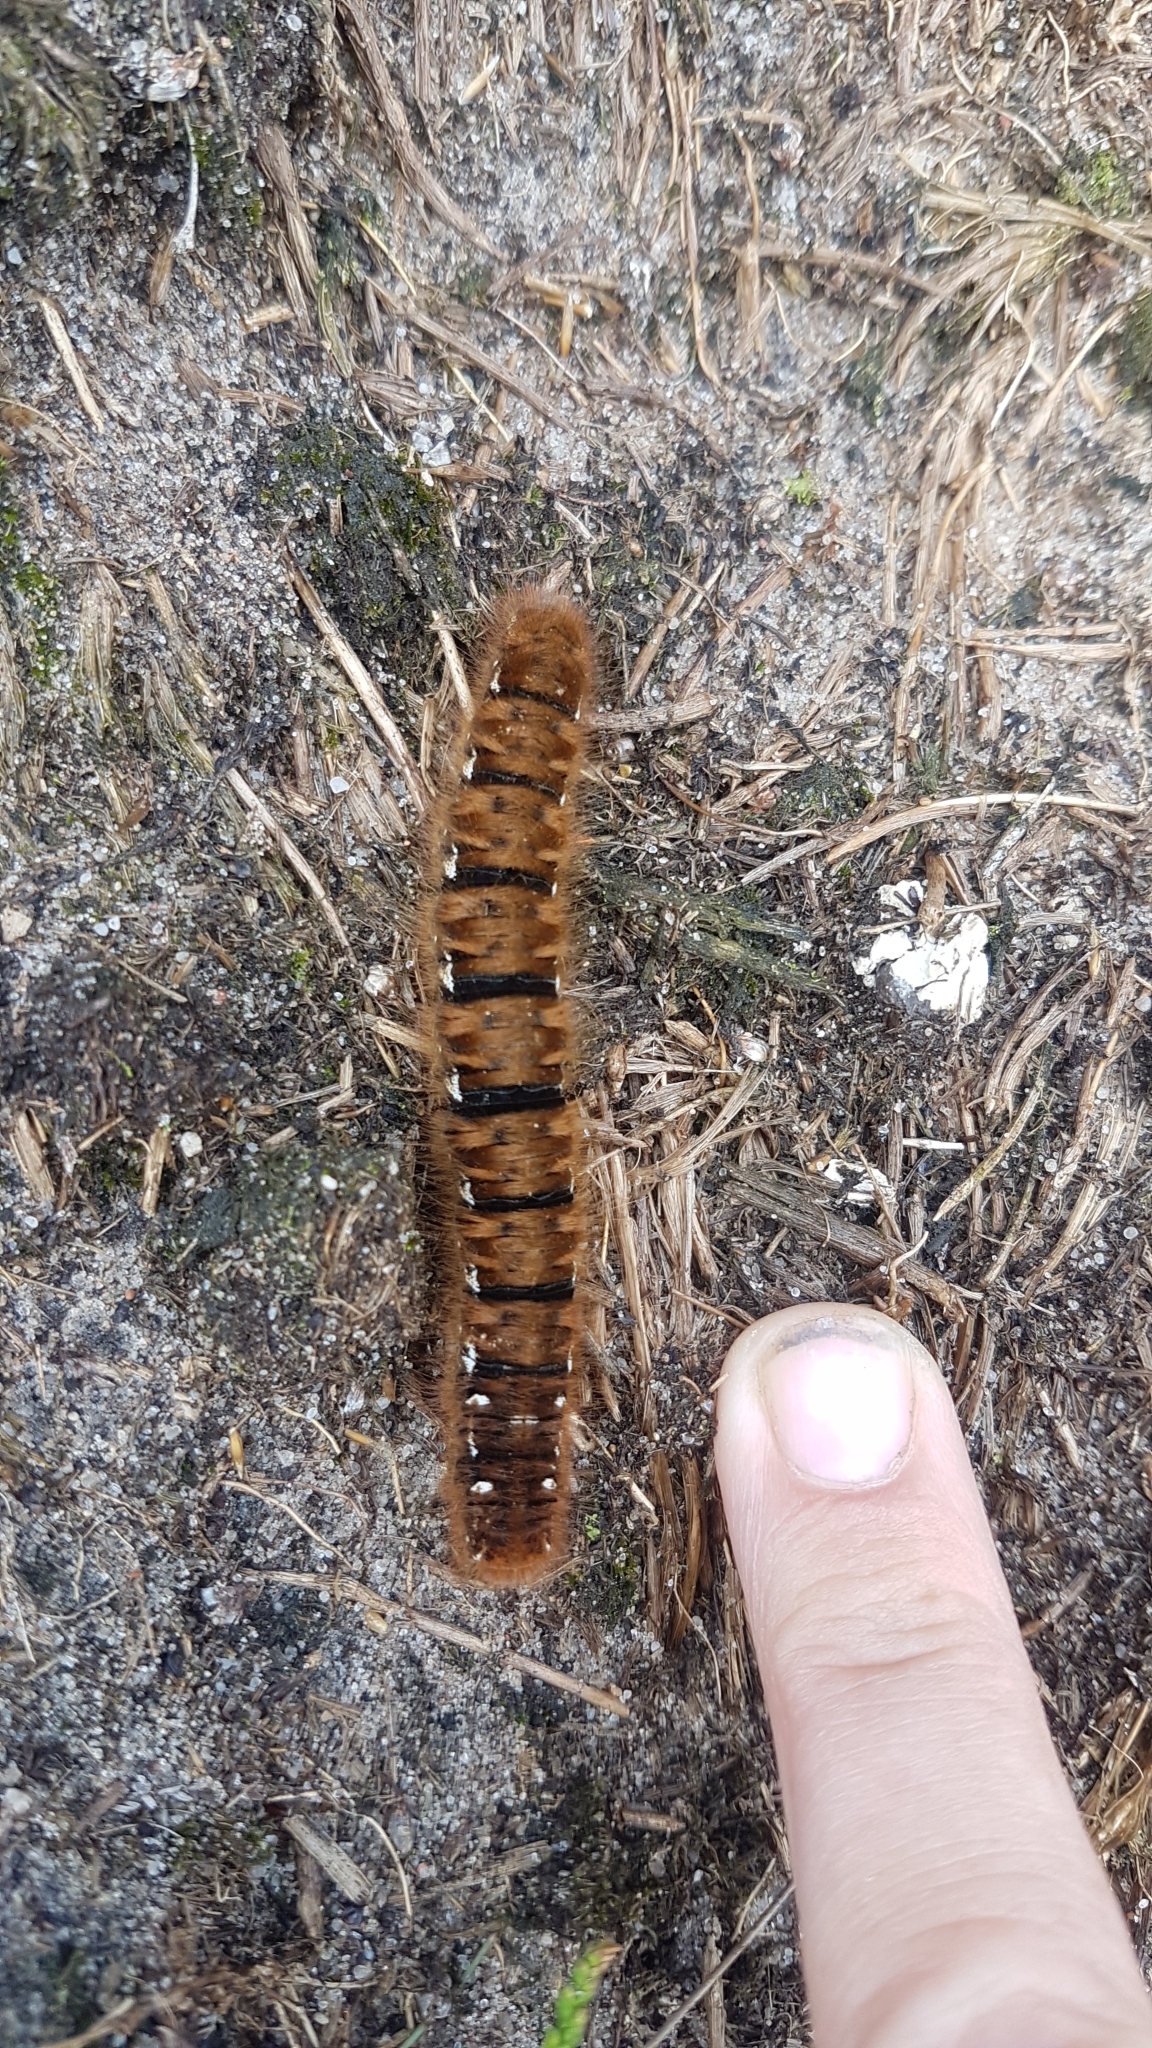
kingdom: Animalia
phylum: Arthropoda
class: Insecta
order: Lepidoptera
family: Lasiocampidae
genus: Lasiocampa
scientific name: Lasiocampa quercus
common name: Oak eggar
